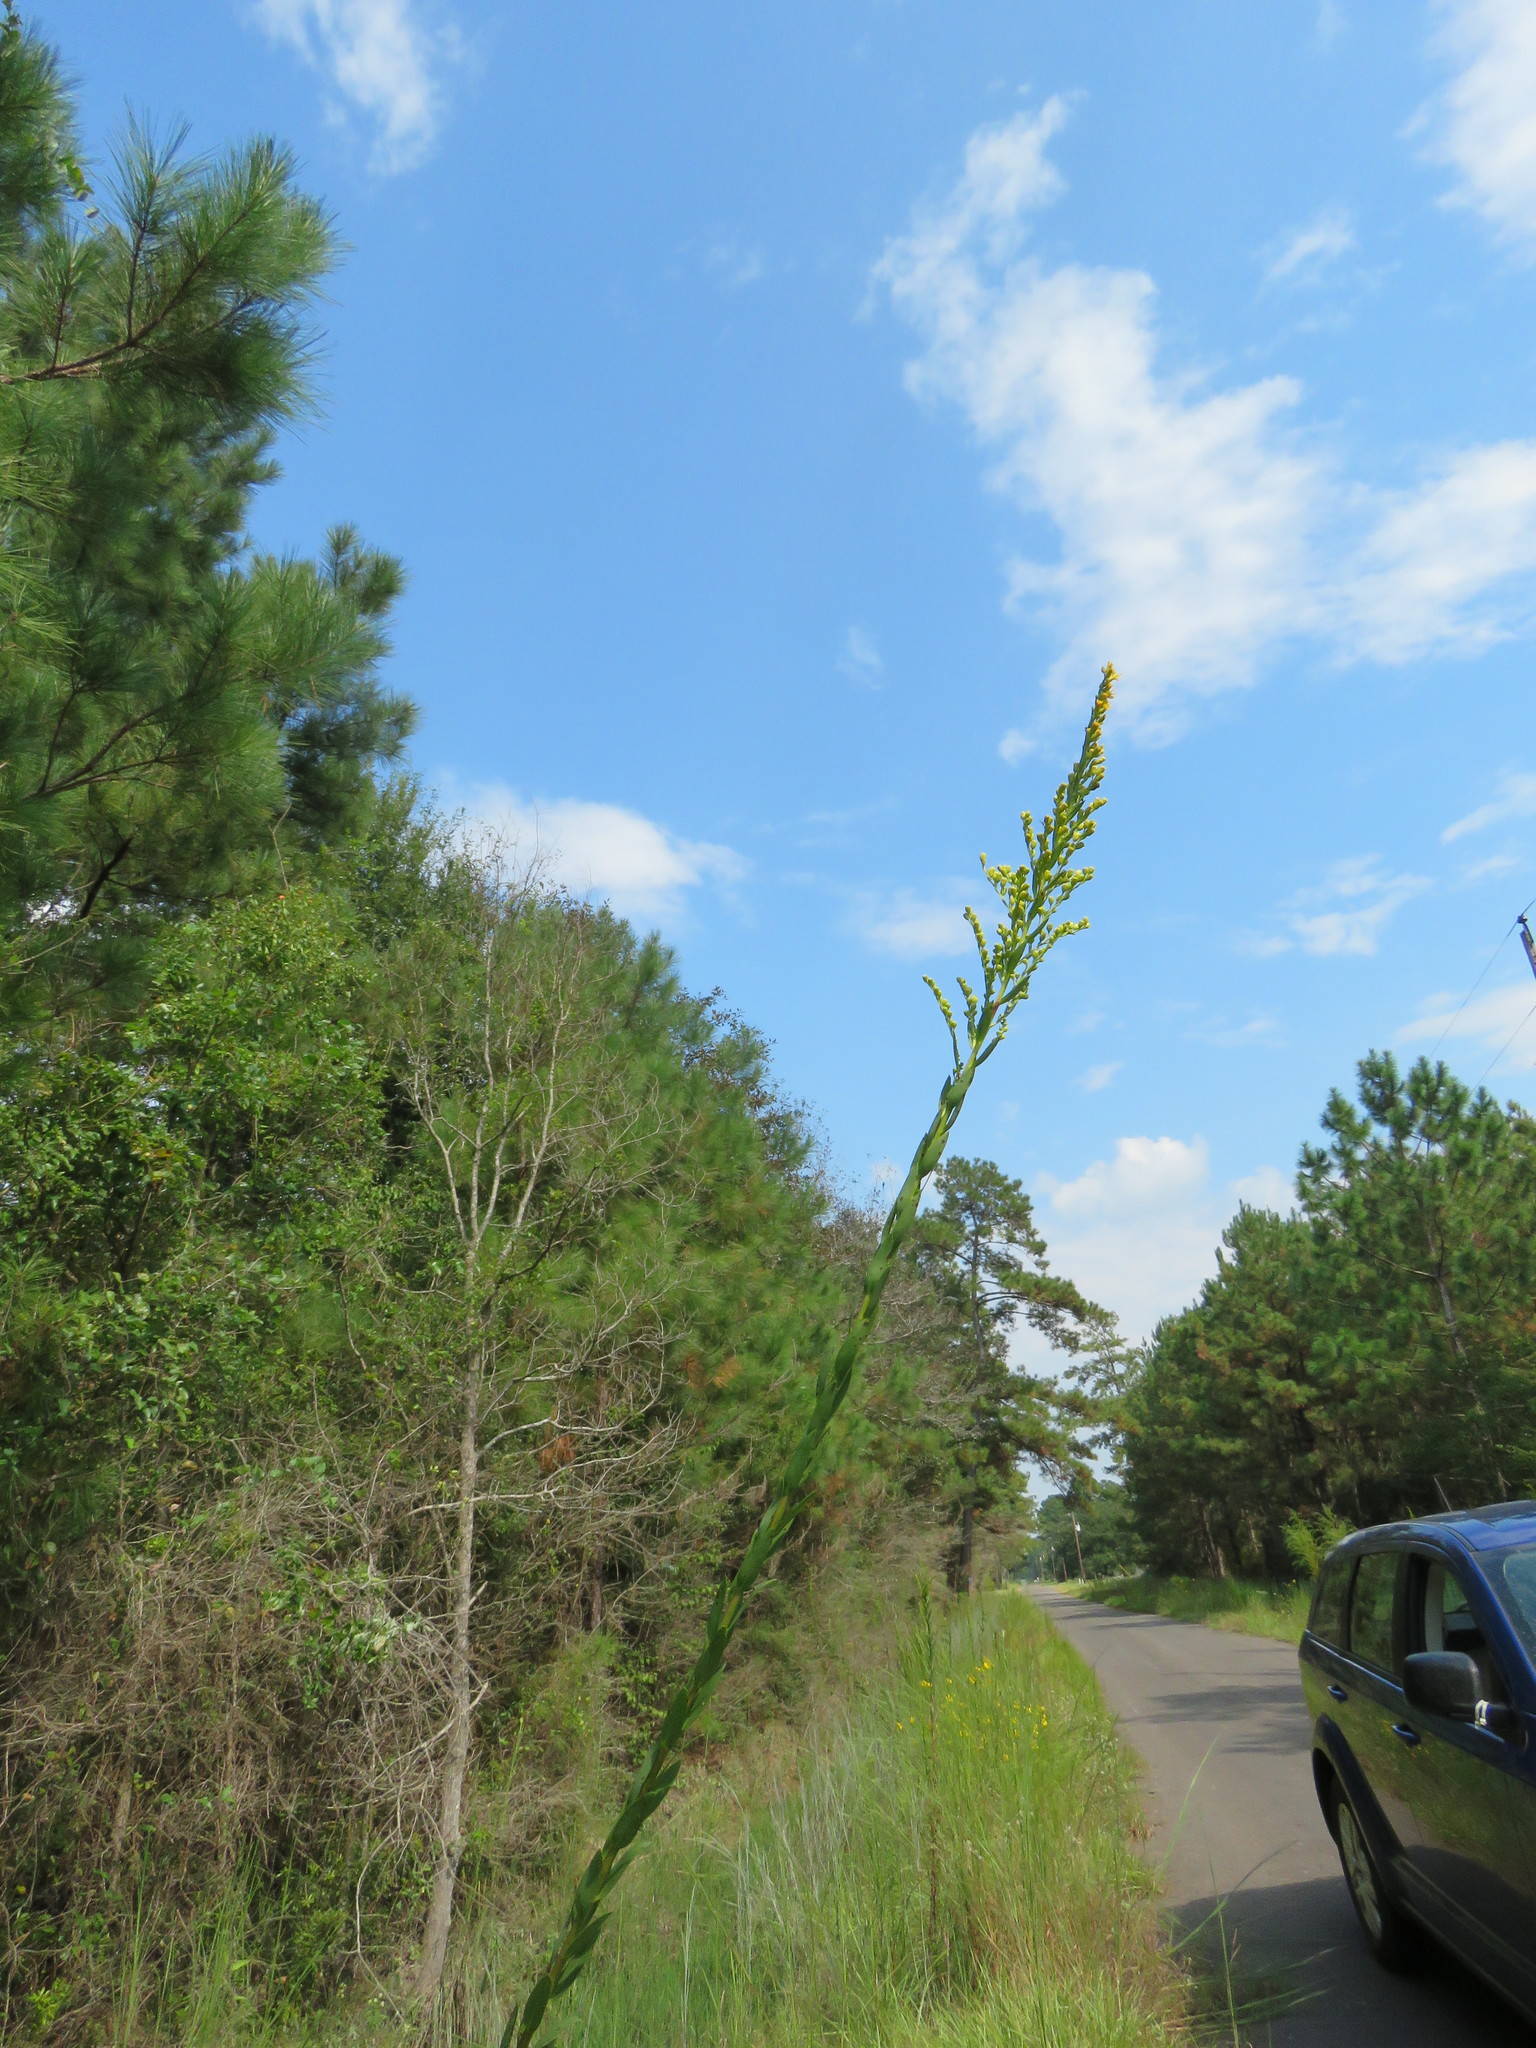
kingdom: Plantae
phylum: Tracheophyta
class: Magnoliopsida
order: Asterales
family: Asteraceae
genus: Solidago
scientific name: Solidago mexicana
